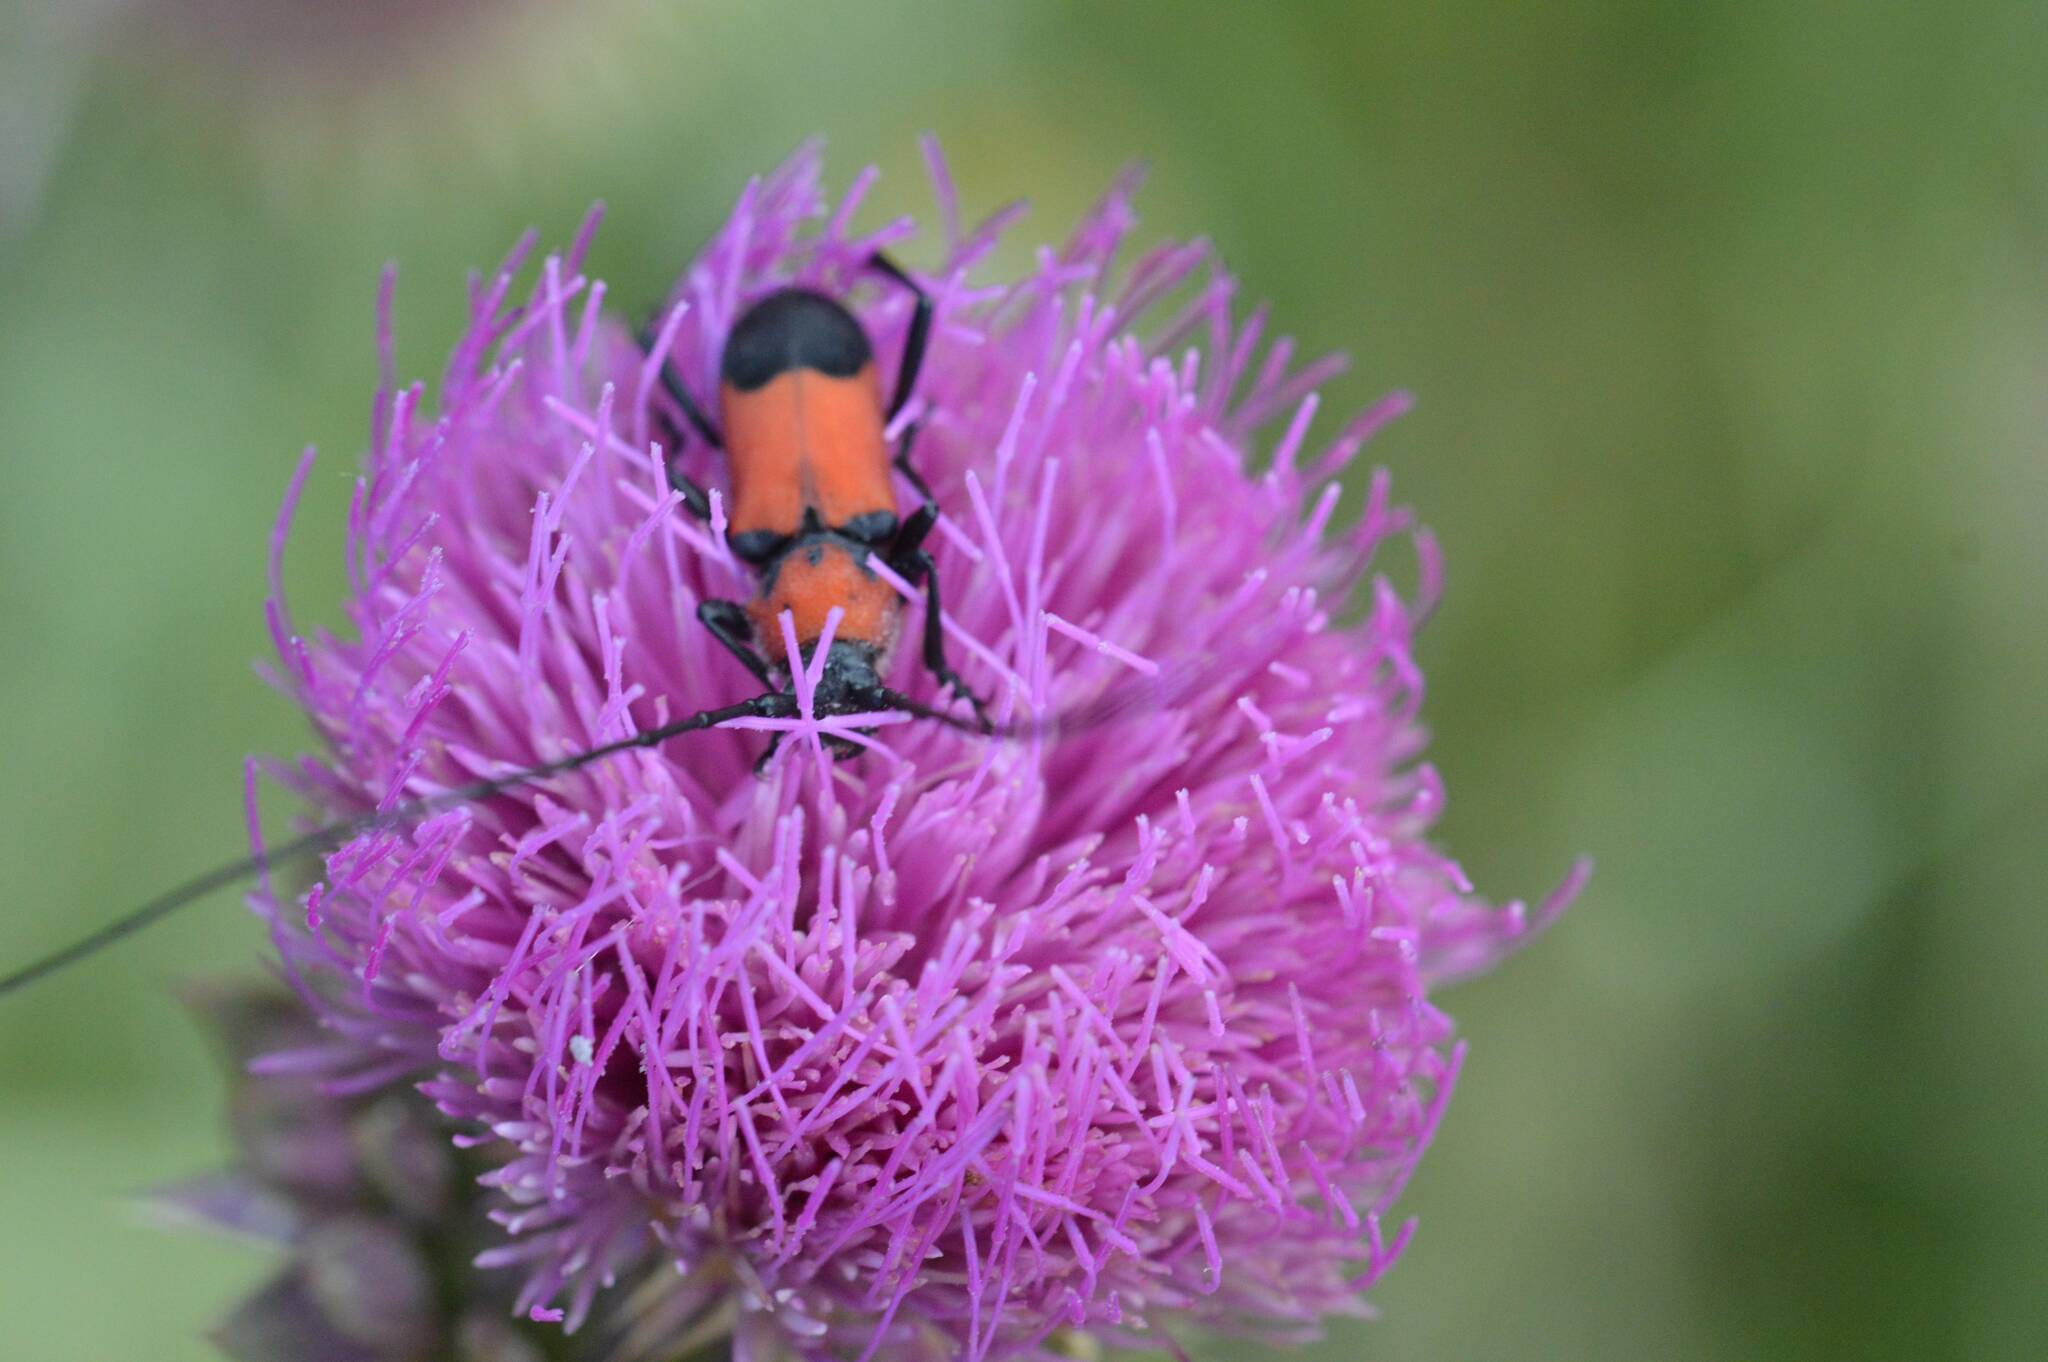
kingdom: Animalia
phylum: Arthropoda
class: Insecta
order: Coleoptera
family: Cerambycidae
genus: Purpuricenus
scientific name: Purpuricenus desfontainii
